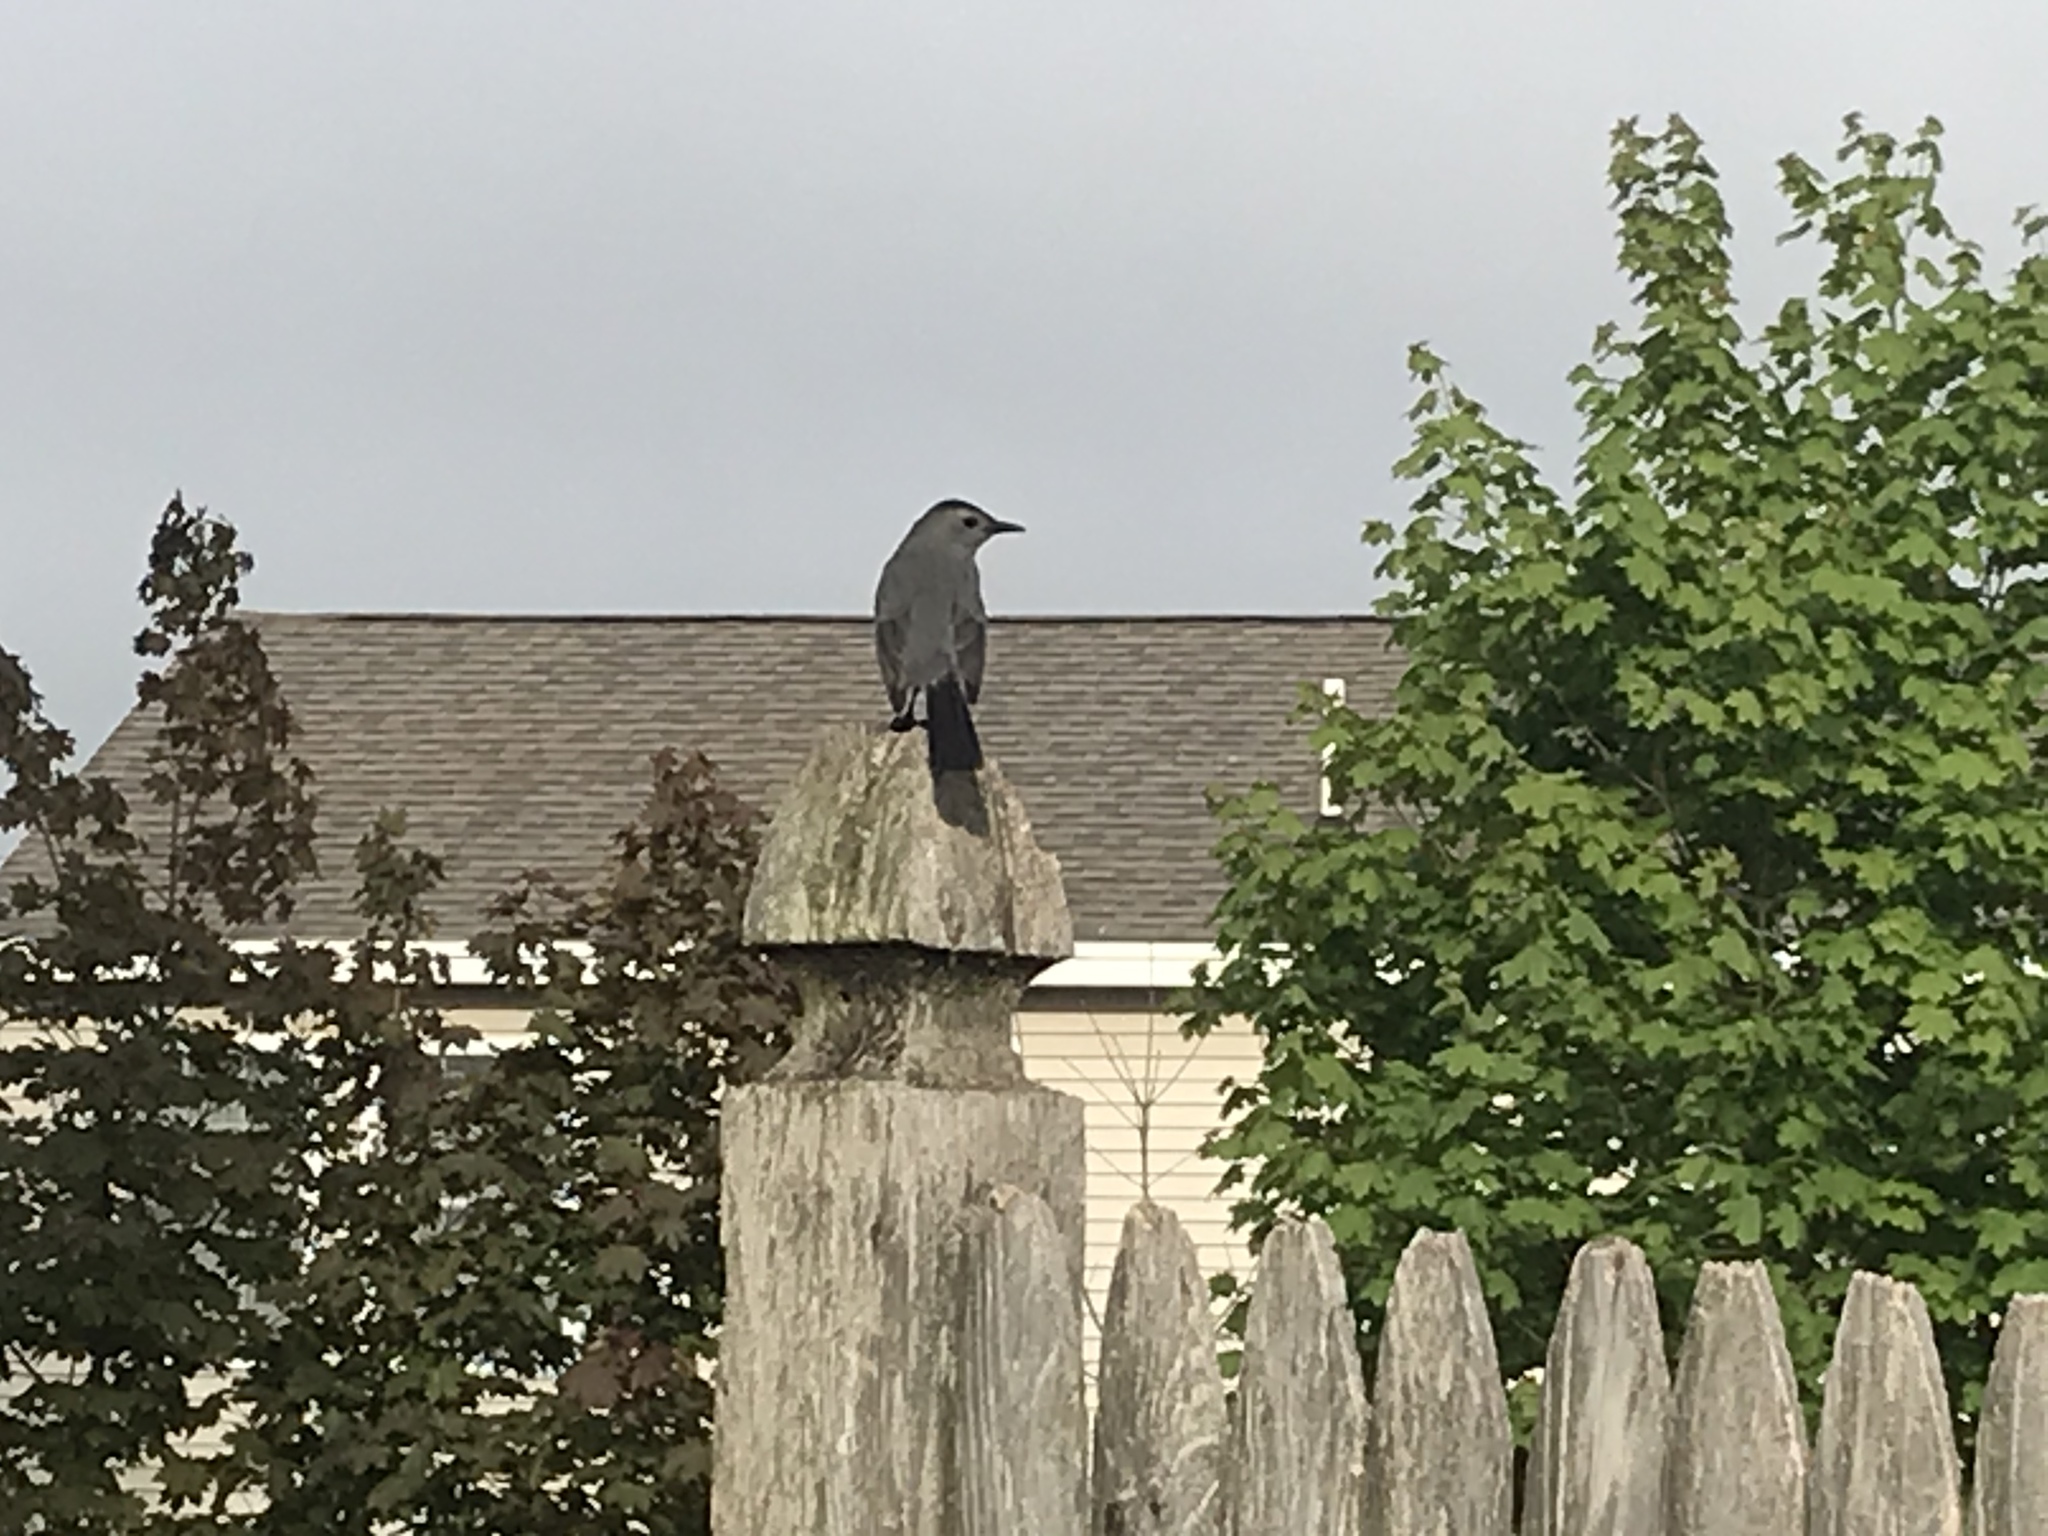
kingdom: Animalia
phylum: Chordata
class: Aves
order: Passeriformes
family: Mimidae
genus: Dumetella
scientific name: Dumetella carolinensis
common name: Gray catbird
